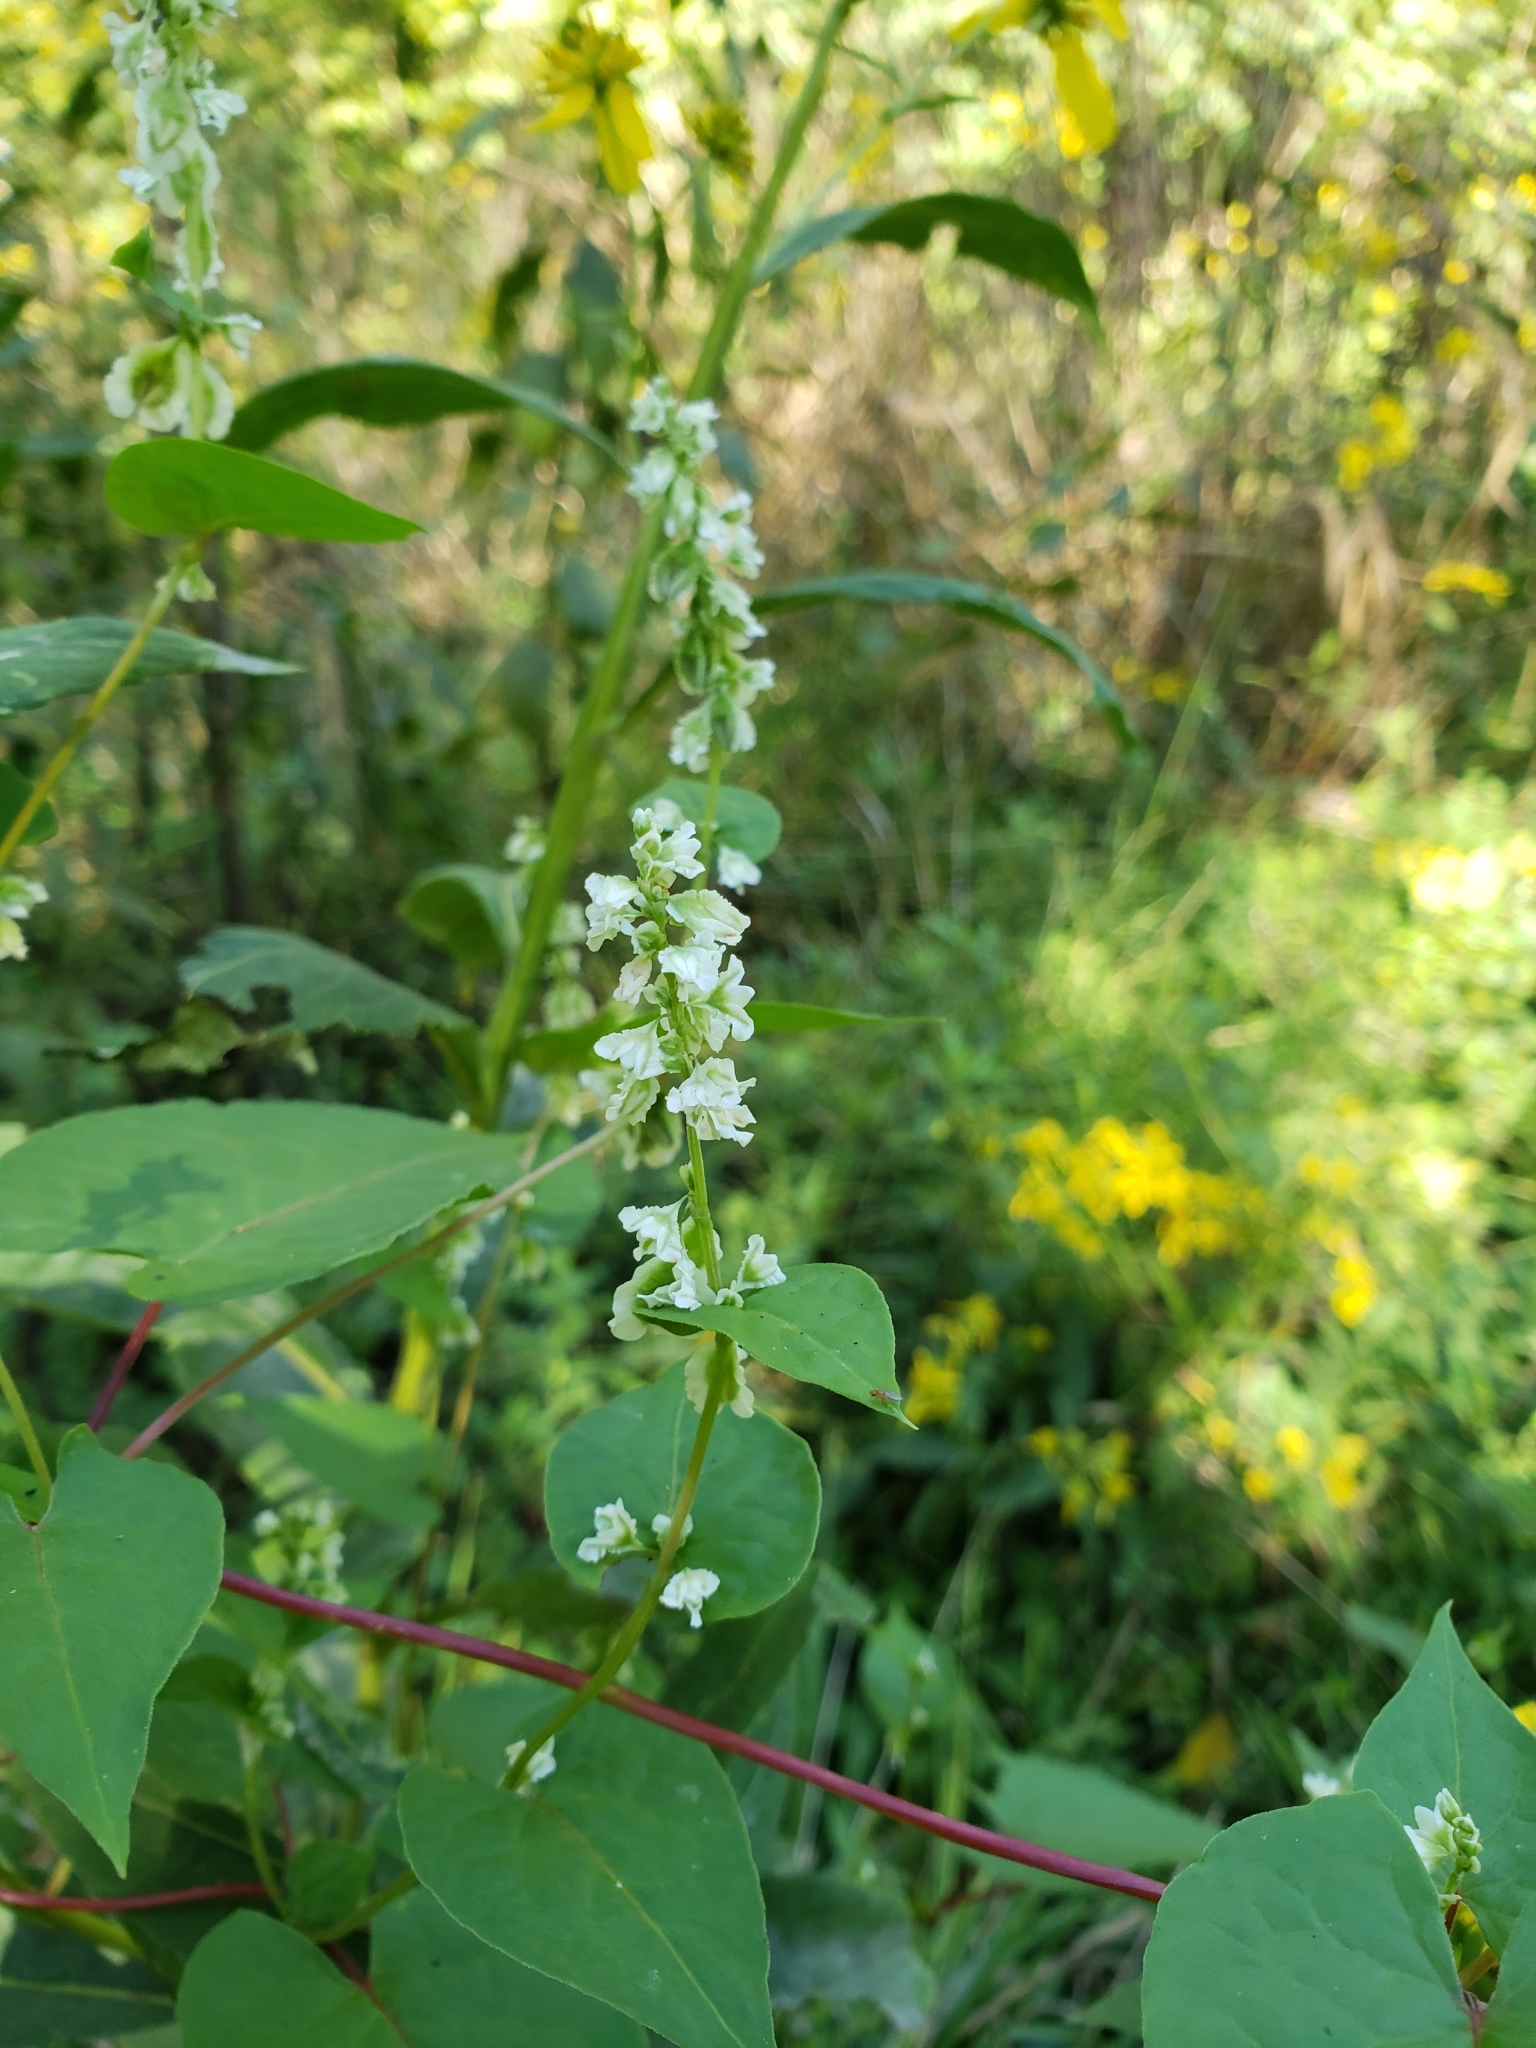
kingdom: Plantae
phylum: Tracheophyta
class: Magnoliopsida
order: Caryophyllales
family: Polygonaceae
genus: Fallopia
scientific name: Fallopia scandens
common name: Climbing false buckwheat
